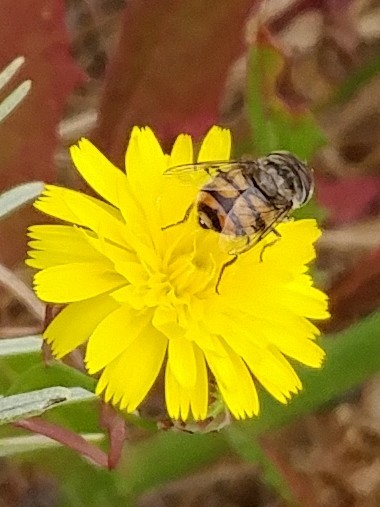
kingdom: Animalia
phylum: Arthropoda
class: Insecta
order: Diptera
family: Syrphidae
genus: Copestylum
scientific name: Copestylum avidum
